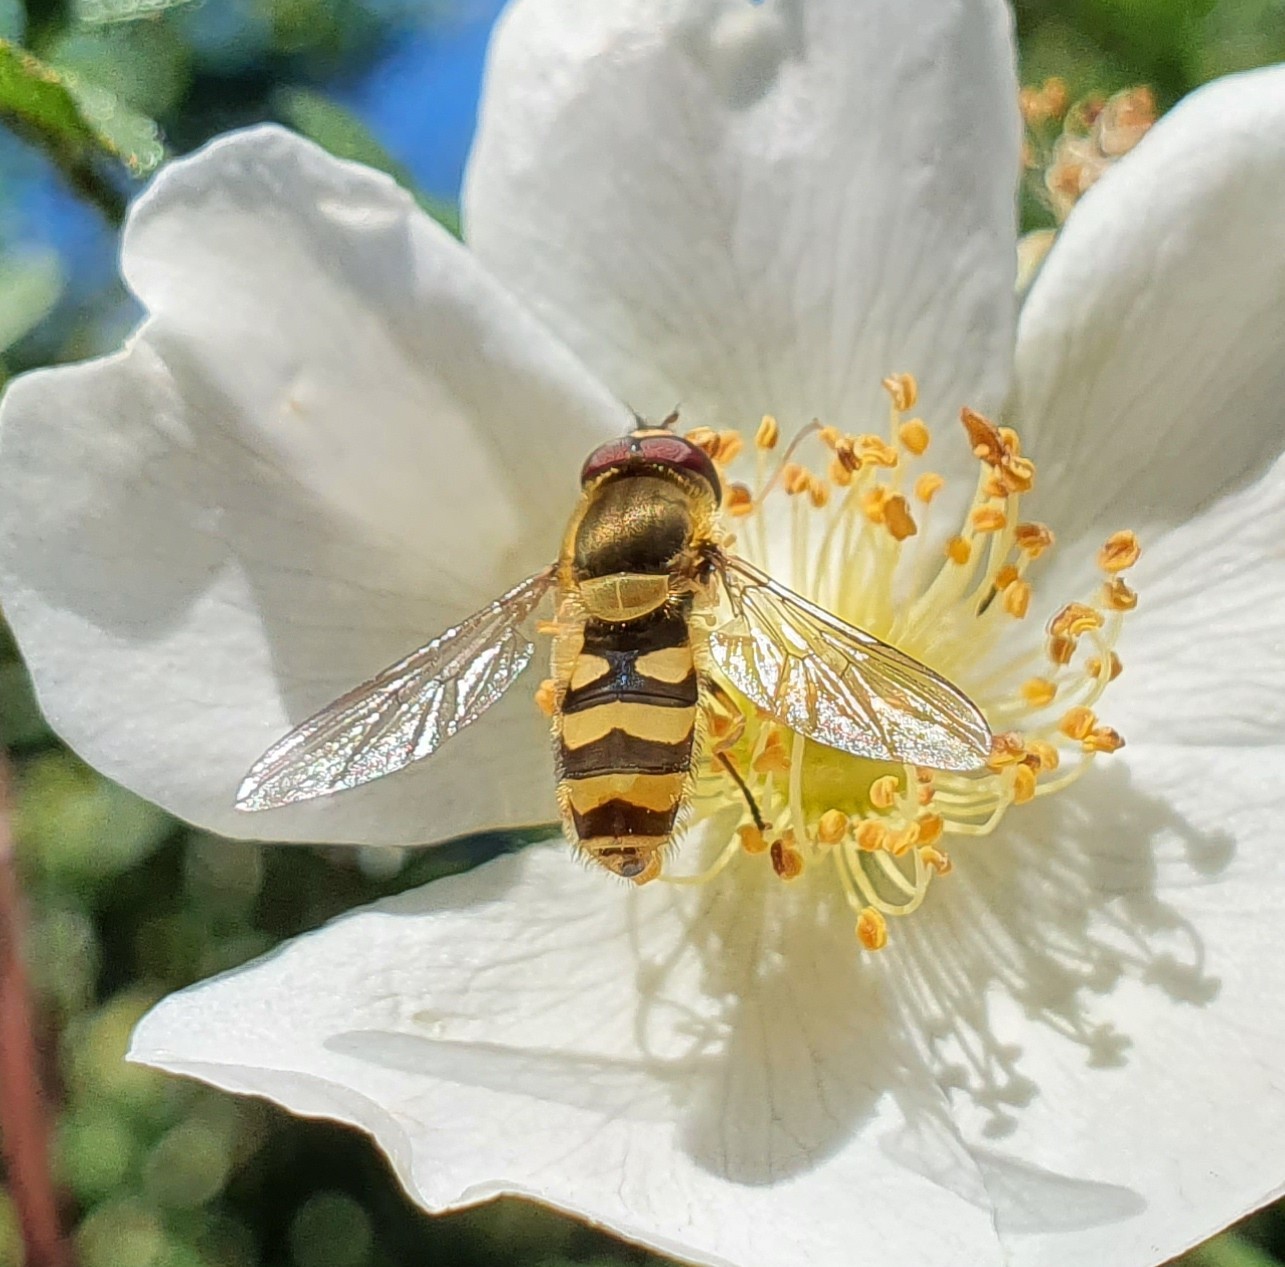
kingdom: Animalia
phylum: Arthropoda
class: Insecta
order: Diptera
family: Syrphidae
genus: Syrphus
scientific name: Syrphus
